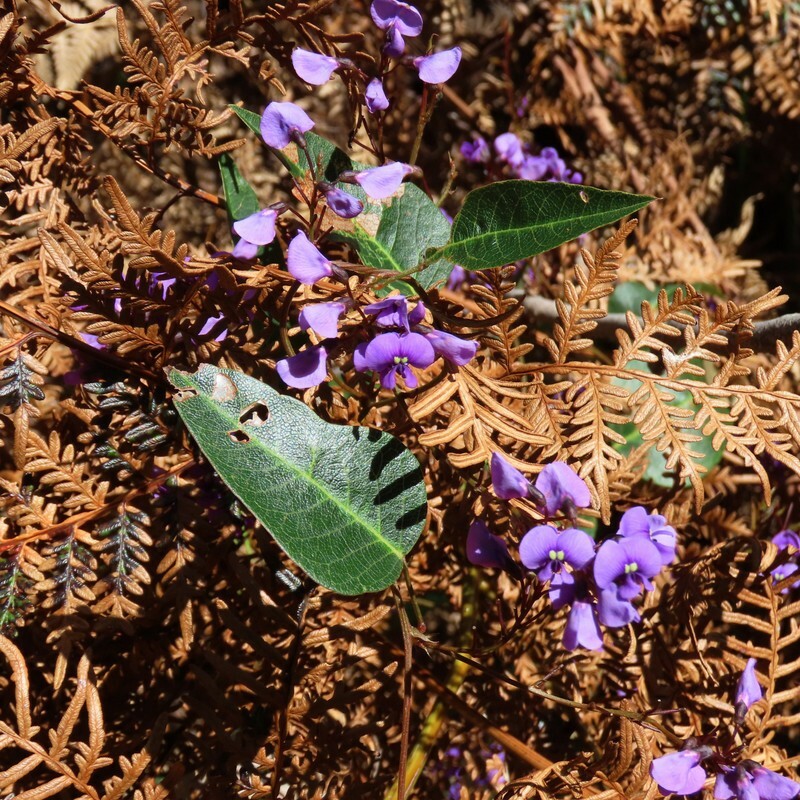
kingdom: Plantae
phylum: Tracheophyta
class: Magnoliopsida
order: Fabales
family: Fabaceae
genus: Hardenbergia
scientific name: Hardenbergia violacea
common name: Coral-pea
